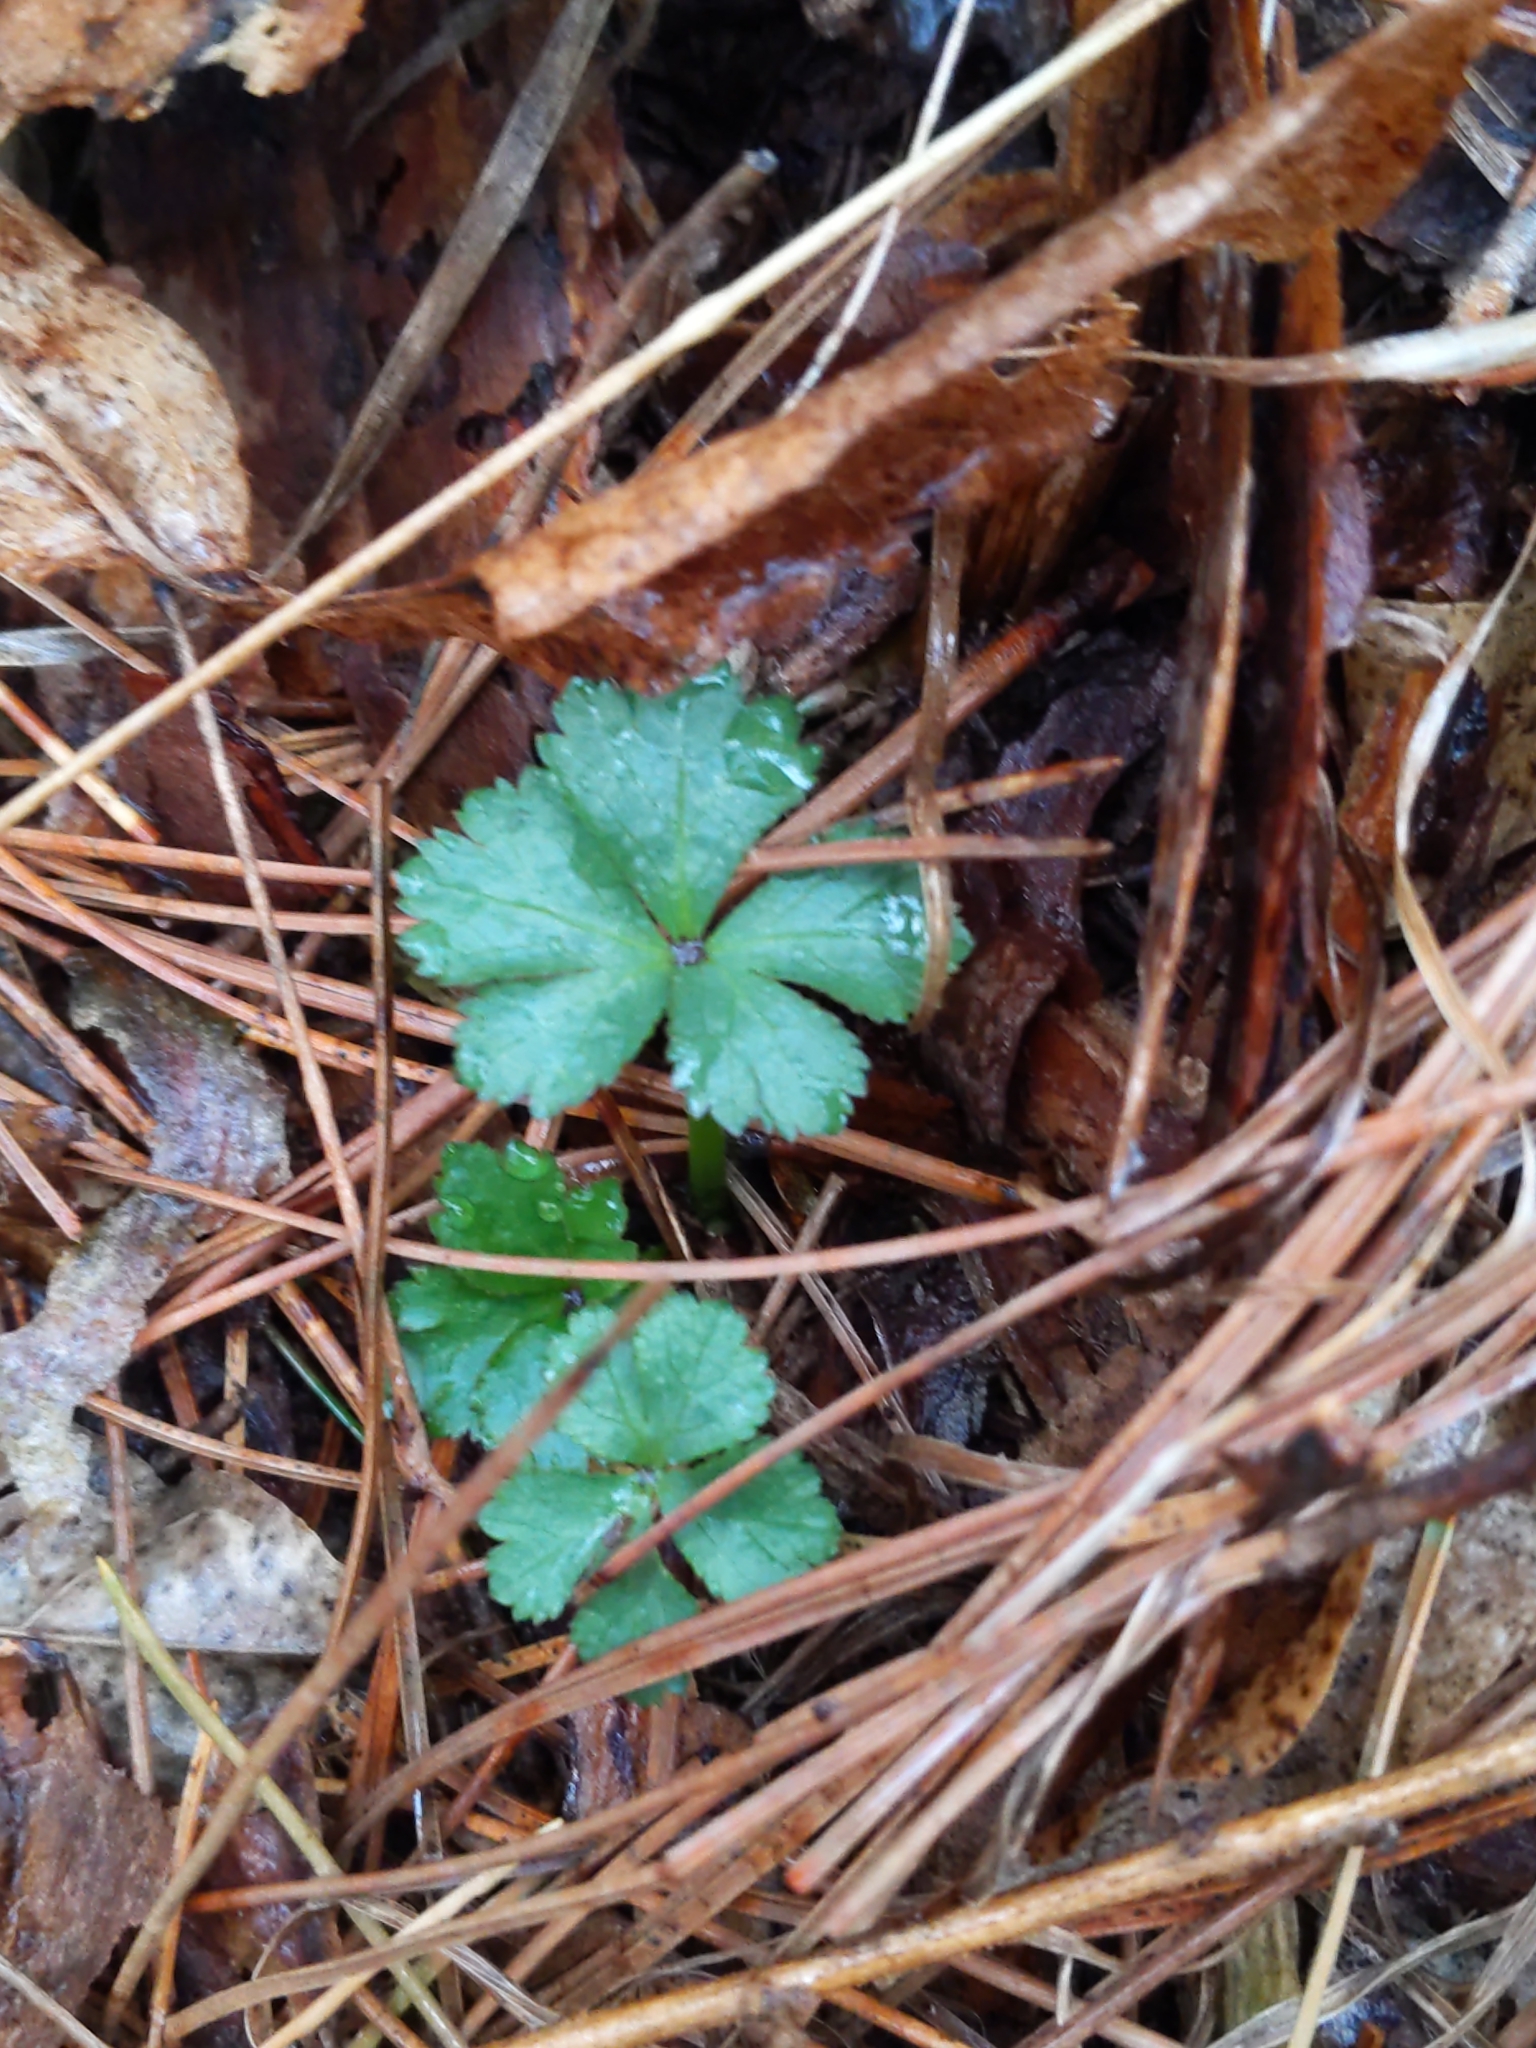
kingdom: Plantae
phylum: Tracheophyta
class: Magnoliopsida
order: Ranunculales
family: Ranunculaceae
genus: Coptis
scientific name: Coptis trifolia
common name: Canker-root
